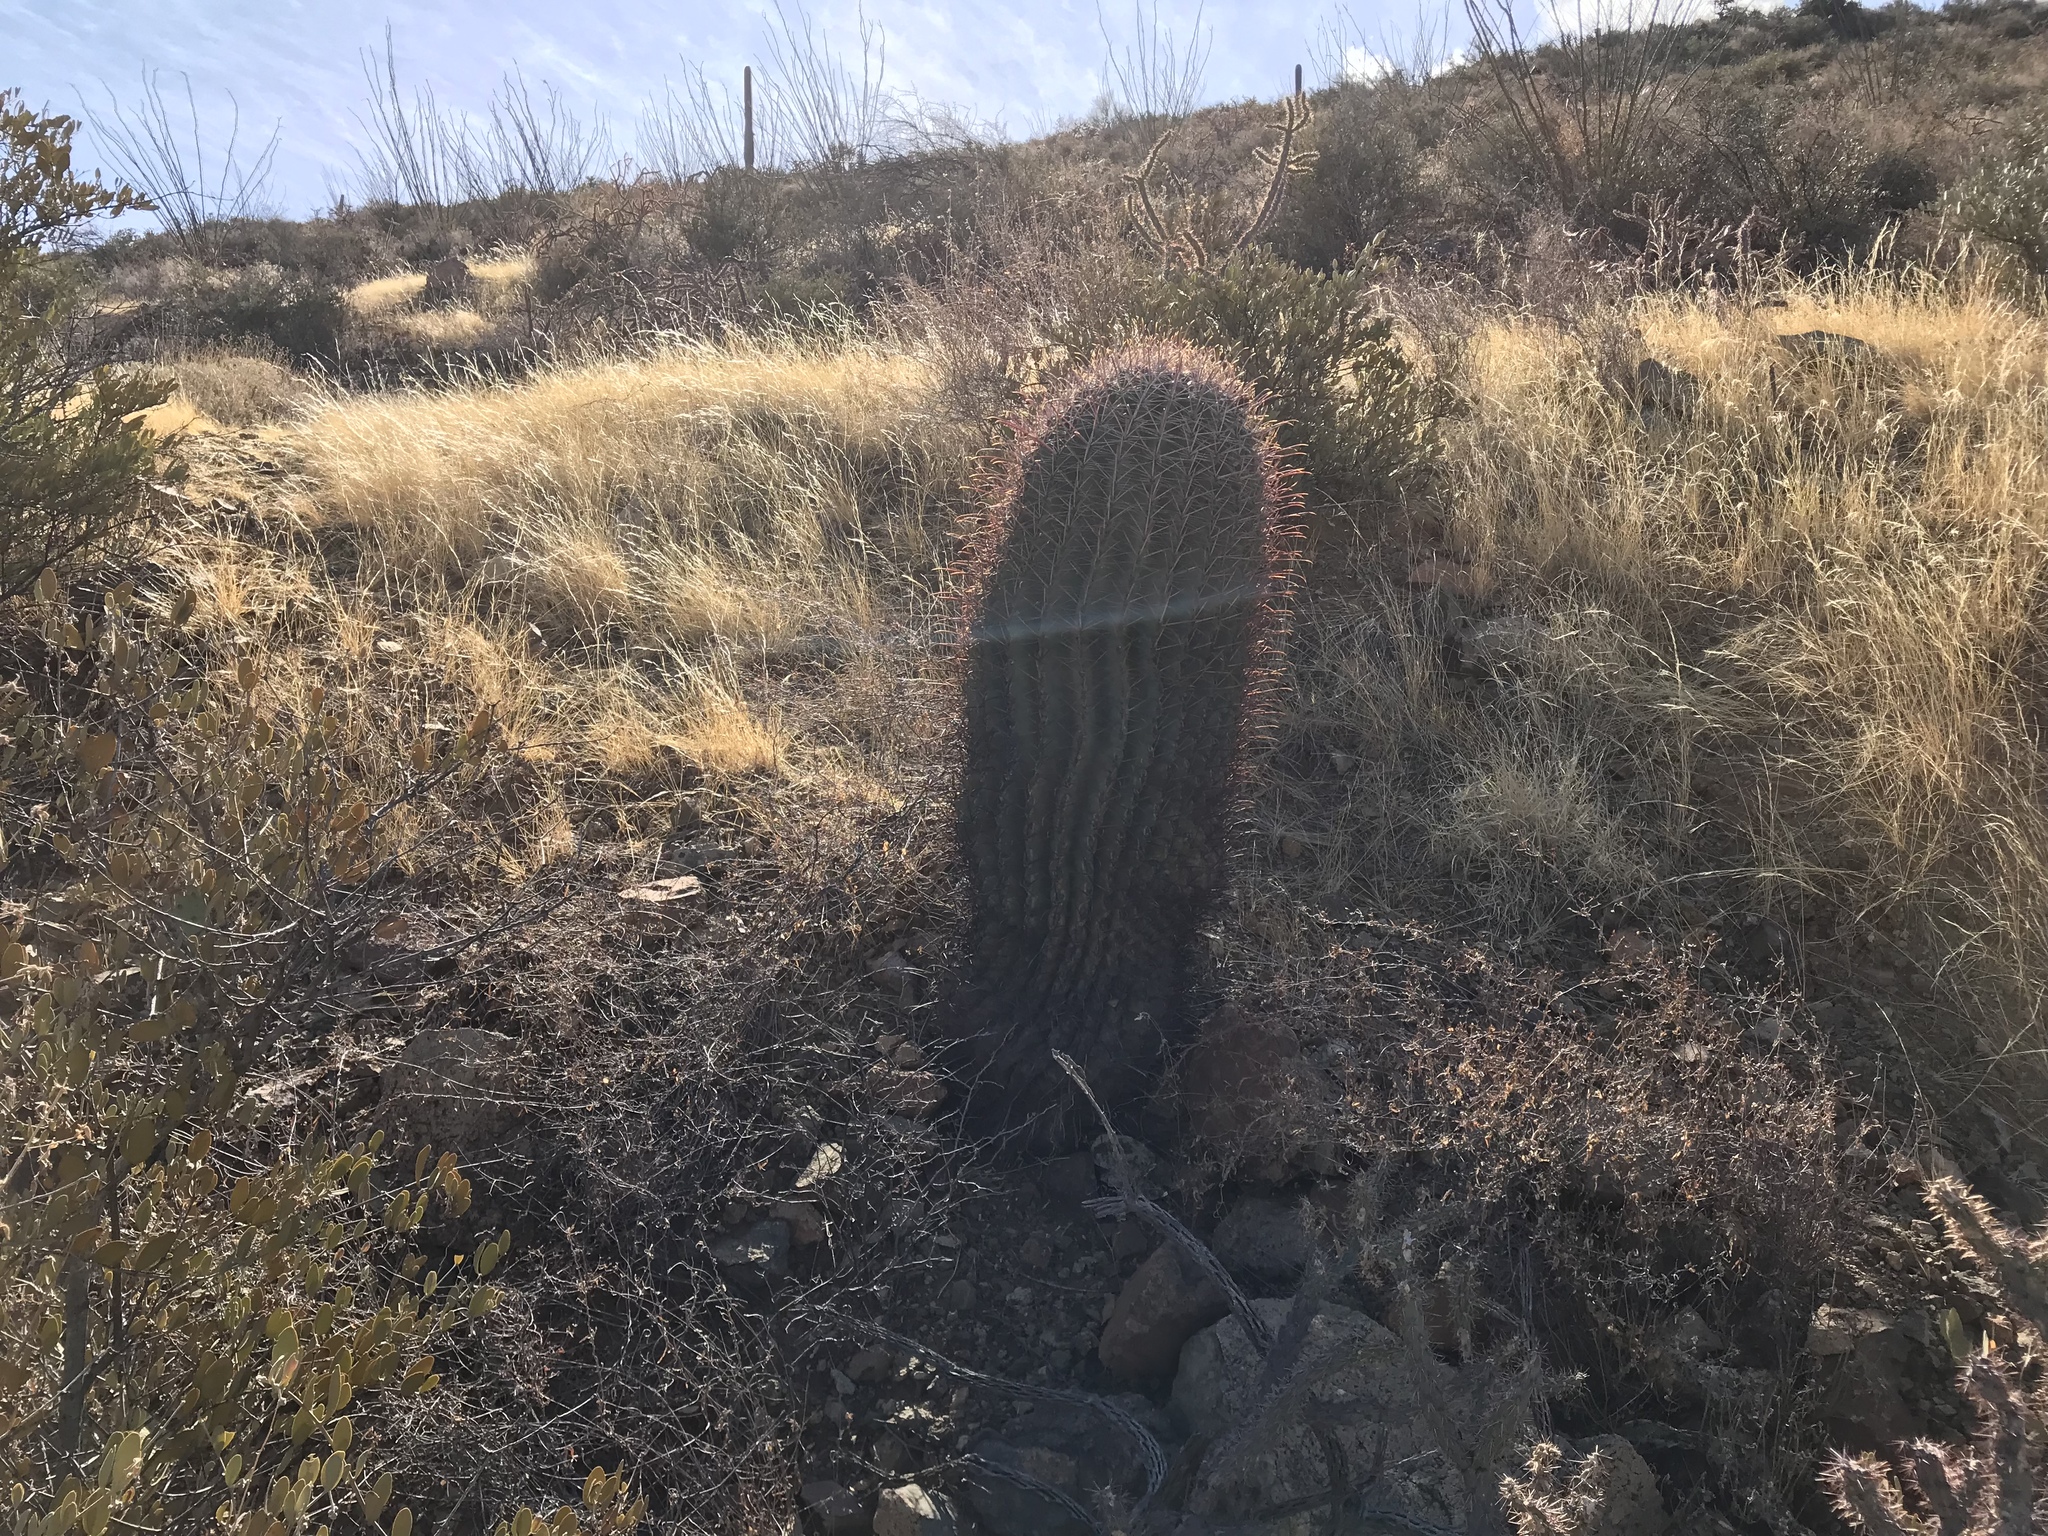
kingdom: Plantae
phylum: Tracheophyta
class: Magnoliopsida
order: Caryophyllales
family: Cactaceae
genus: Ferocactus
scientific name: Ferocactus wislizeni
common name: Candy barrel cactus
